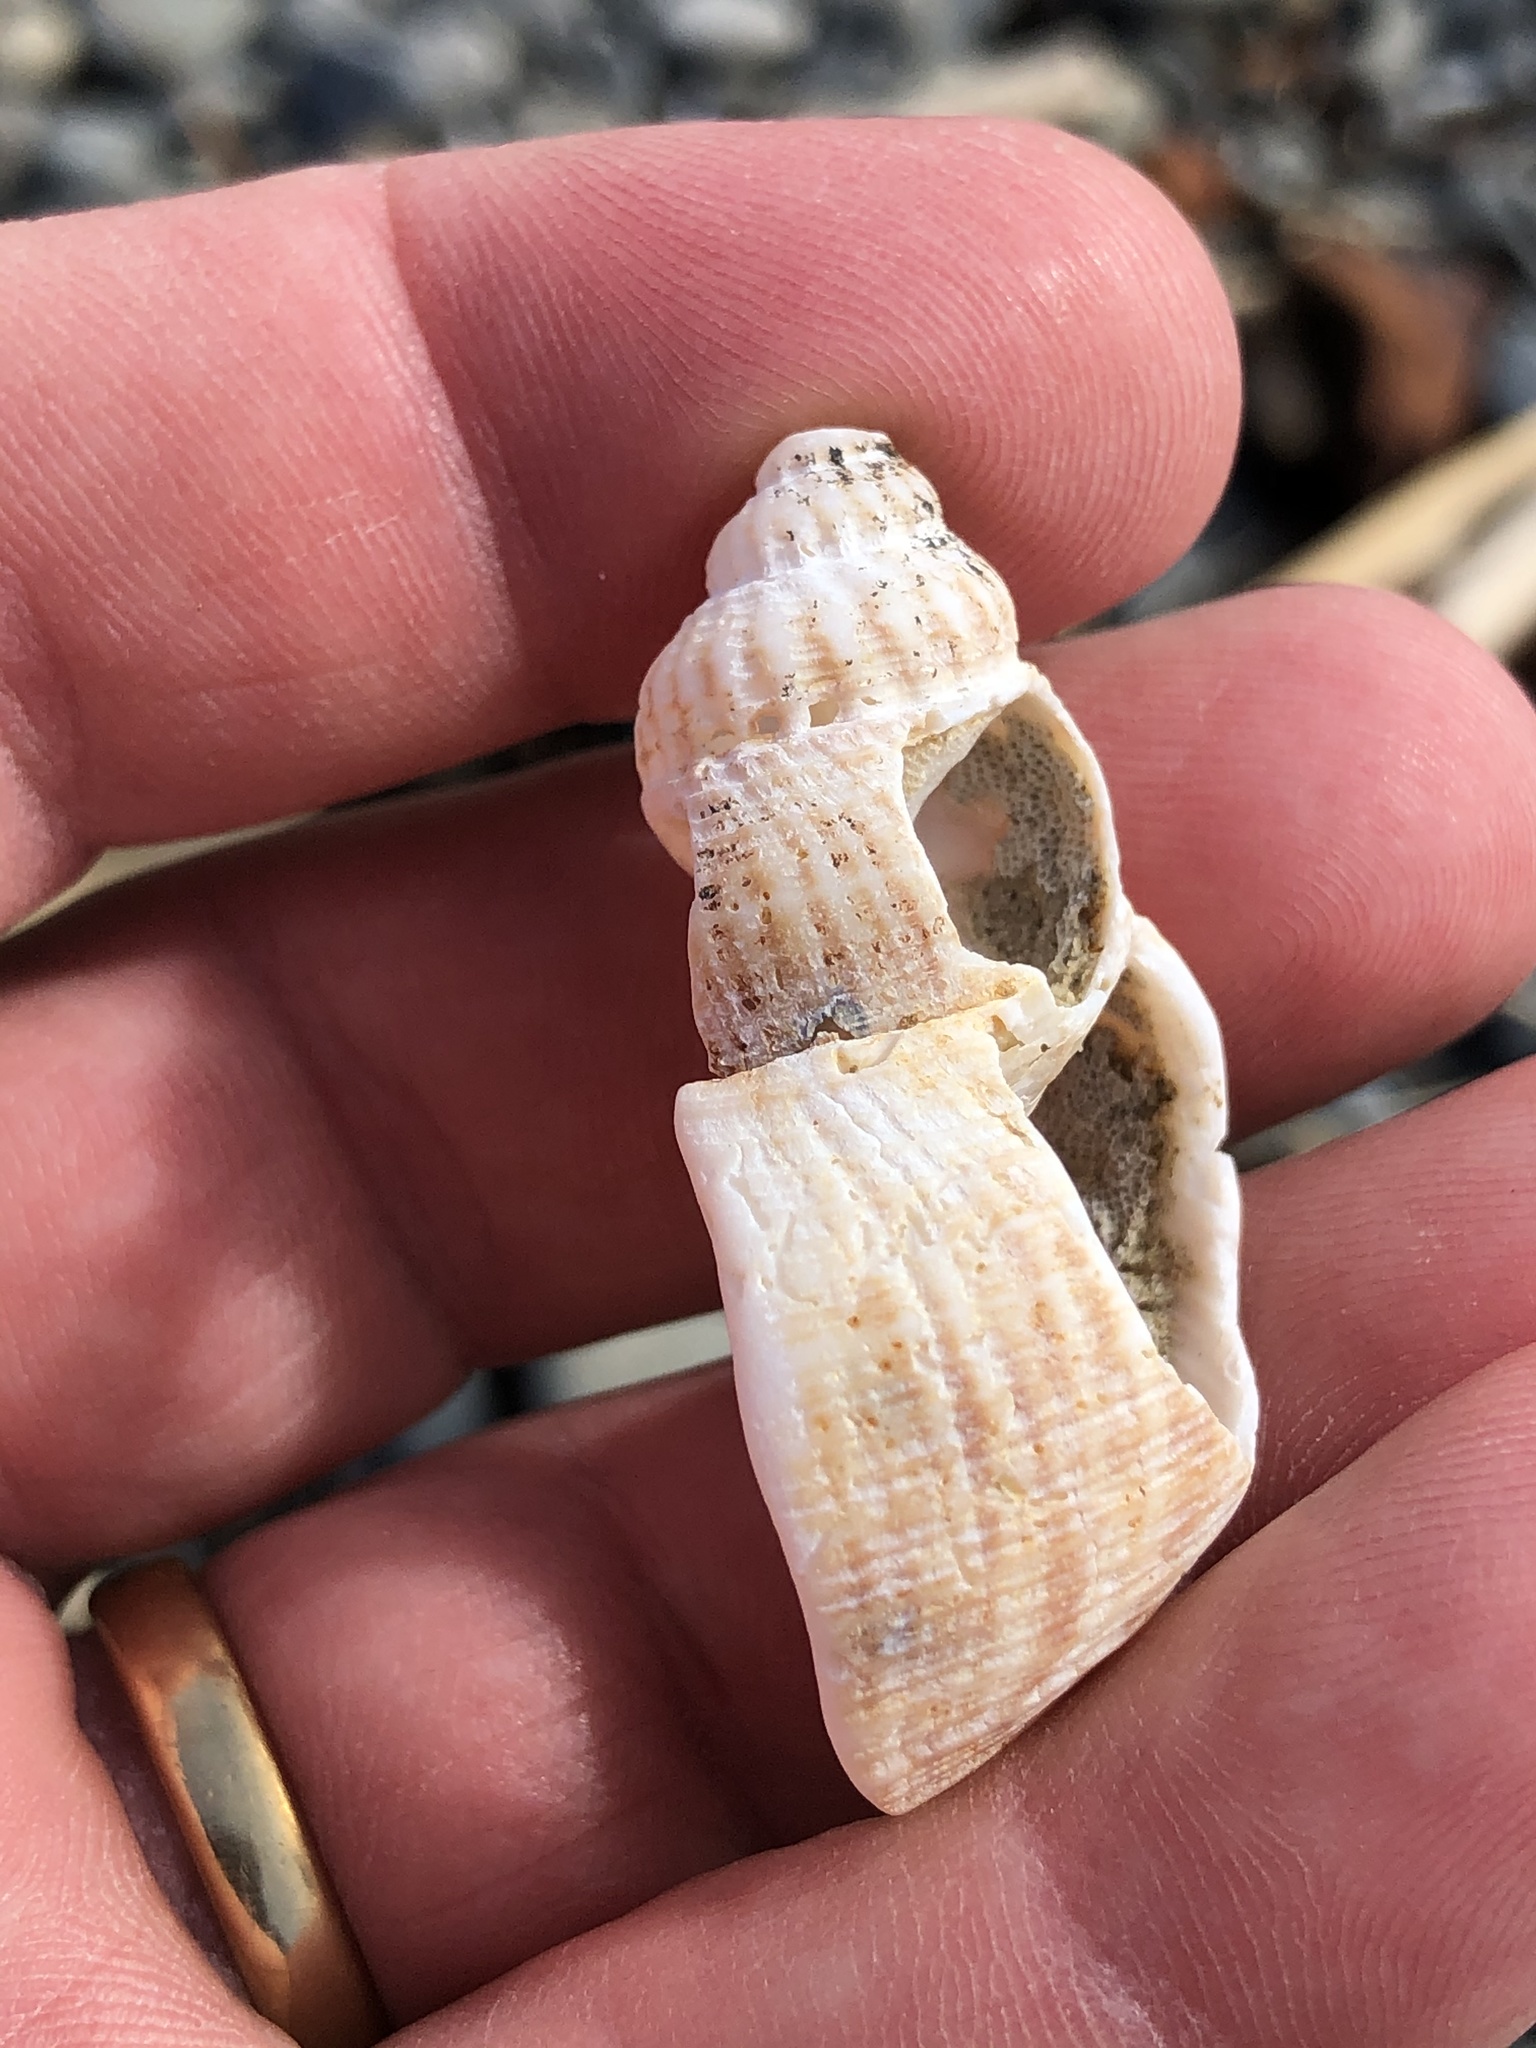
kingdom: Animalia
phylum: Mollusca
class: Gastropoda
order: Neogastropoda
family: Prosiphonidae
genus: Austrofusus
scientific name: Austrofusus glans
